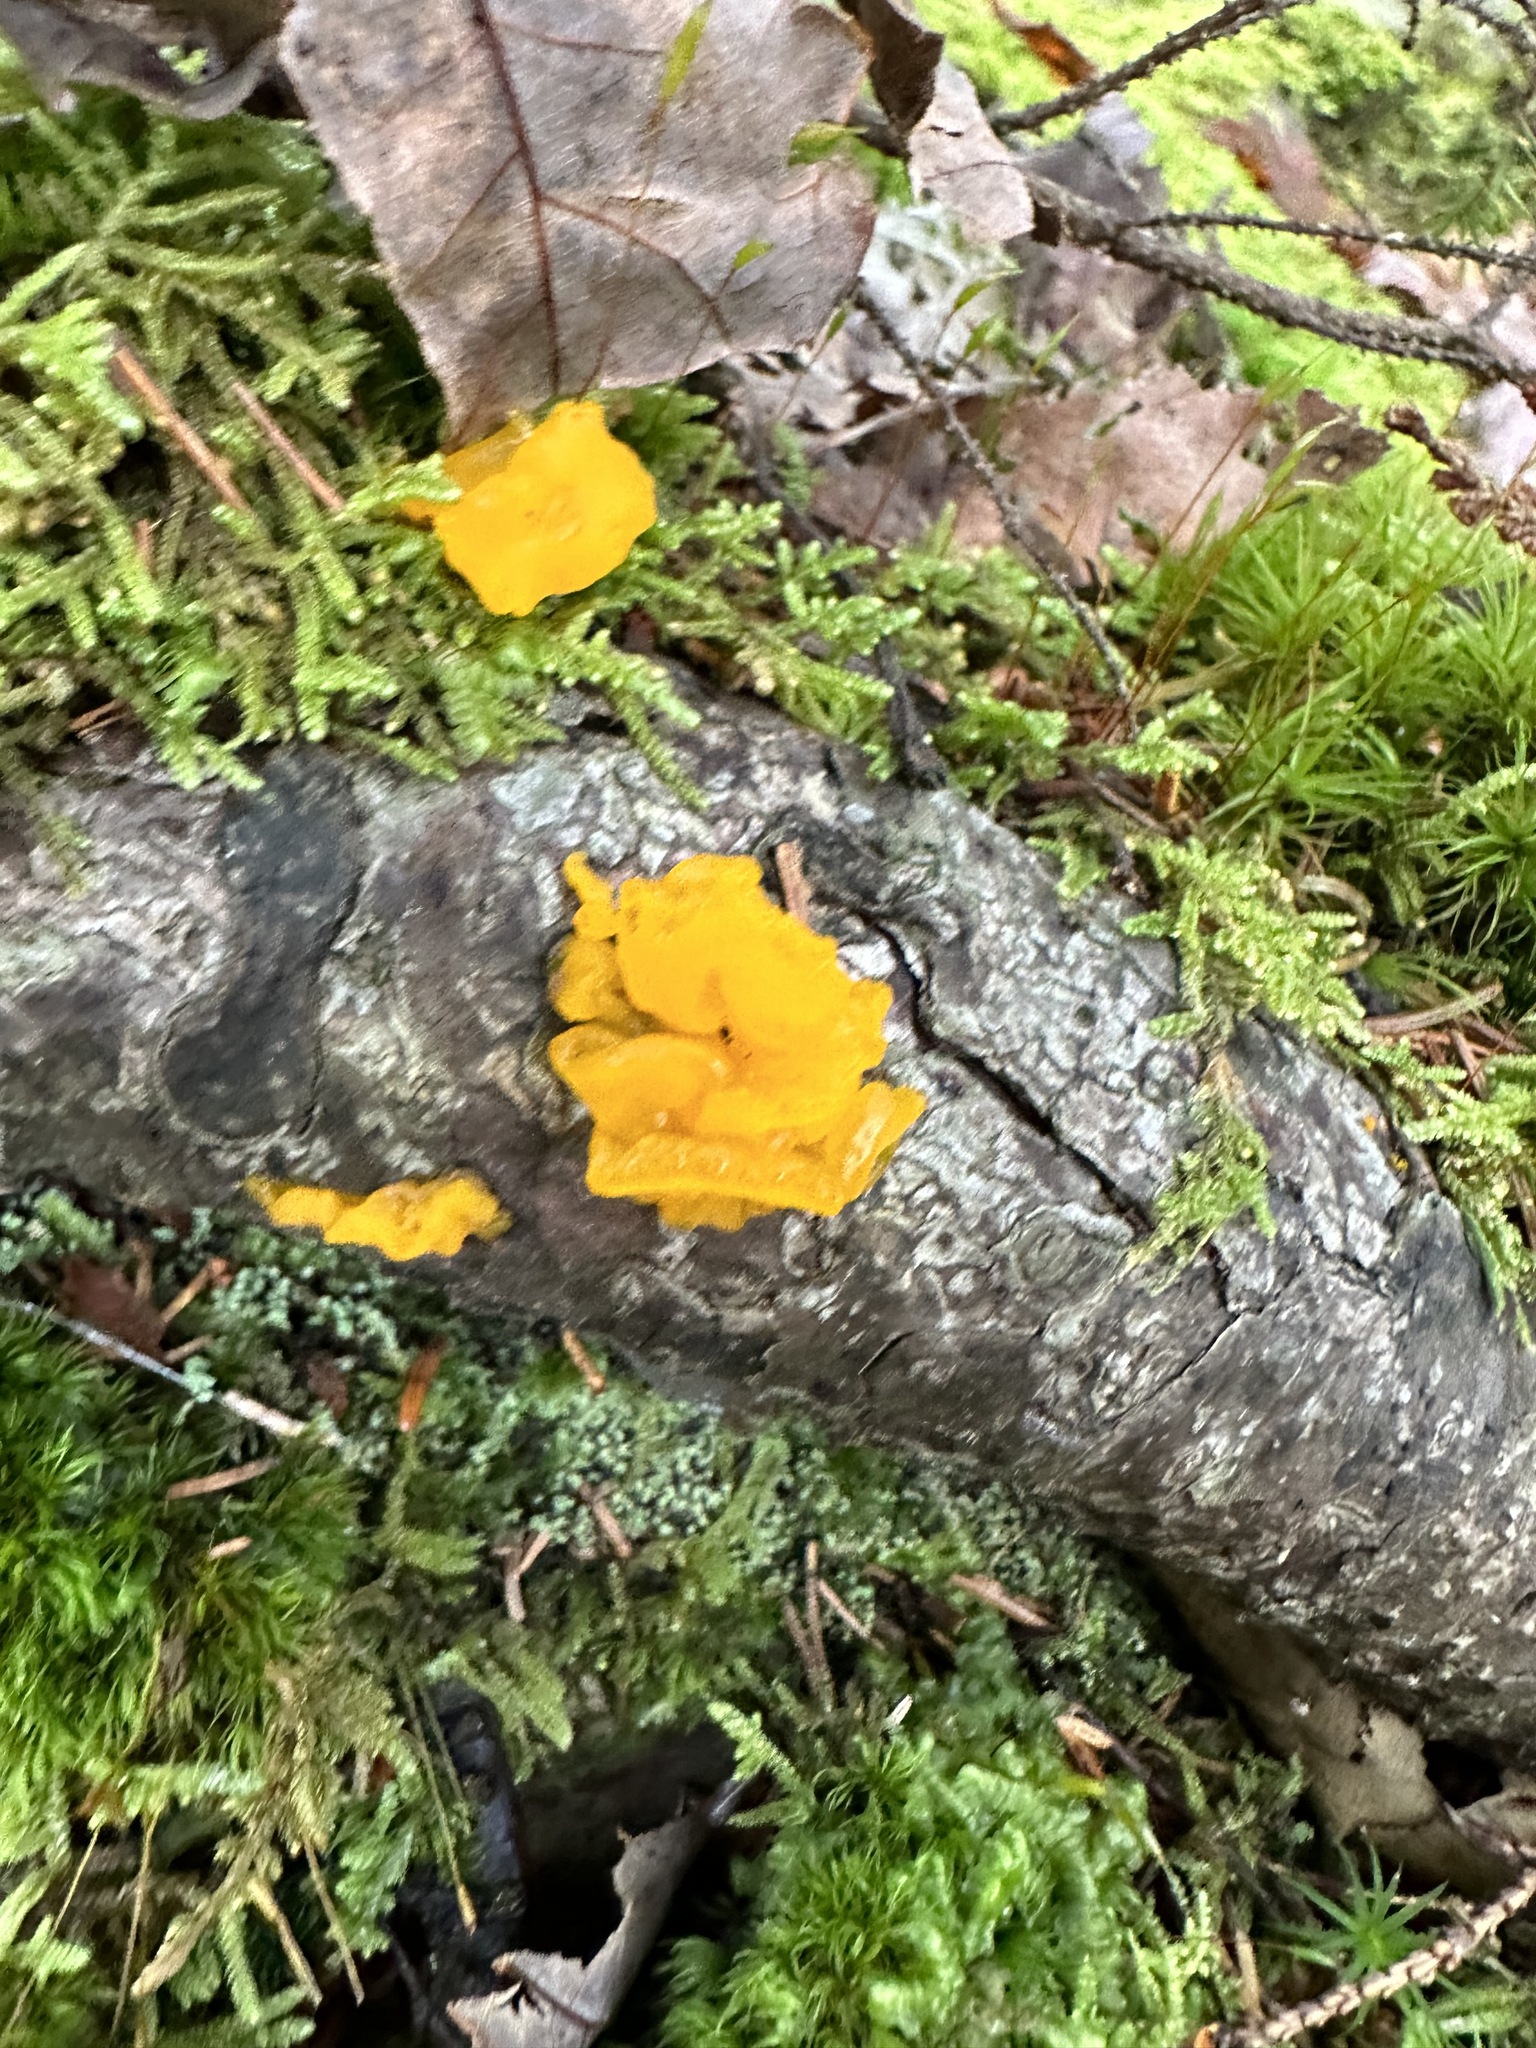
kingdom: Fungi
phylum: Basidiomycota
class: Dacrymycetes
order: Dacrymycetales
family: Dacrymycetaceae
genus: Dacrymyces
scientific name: Dacrymyces chrysospermus
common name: Orange jelly spot
